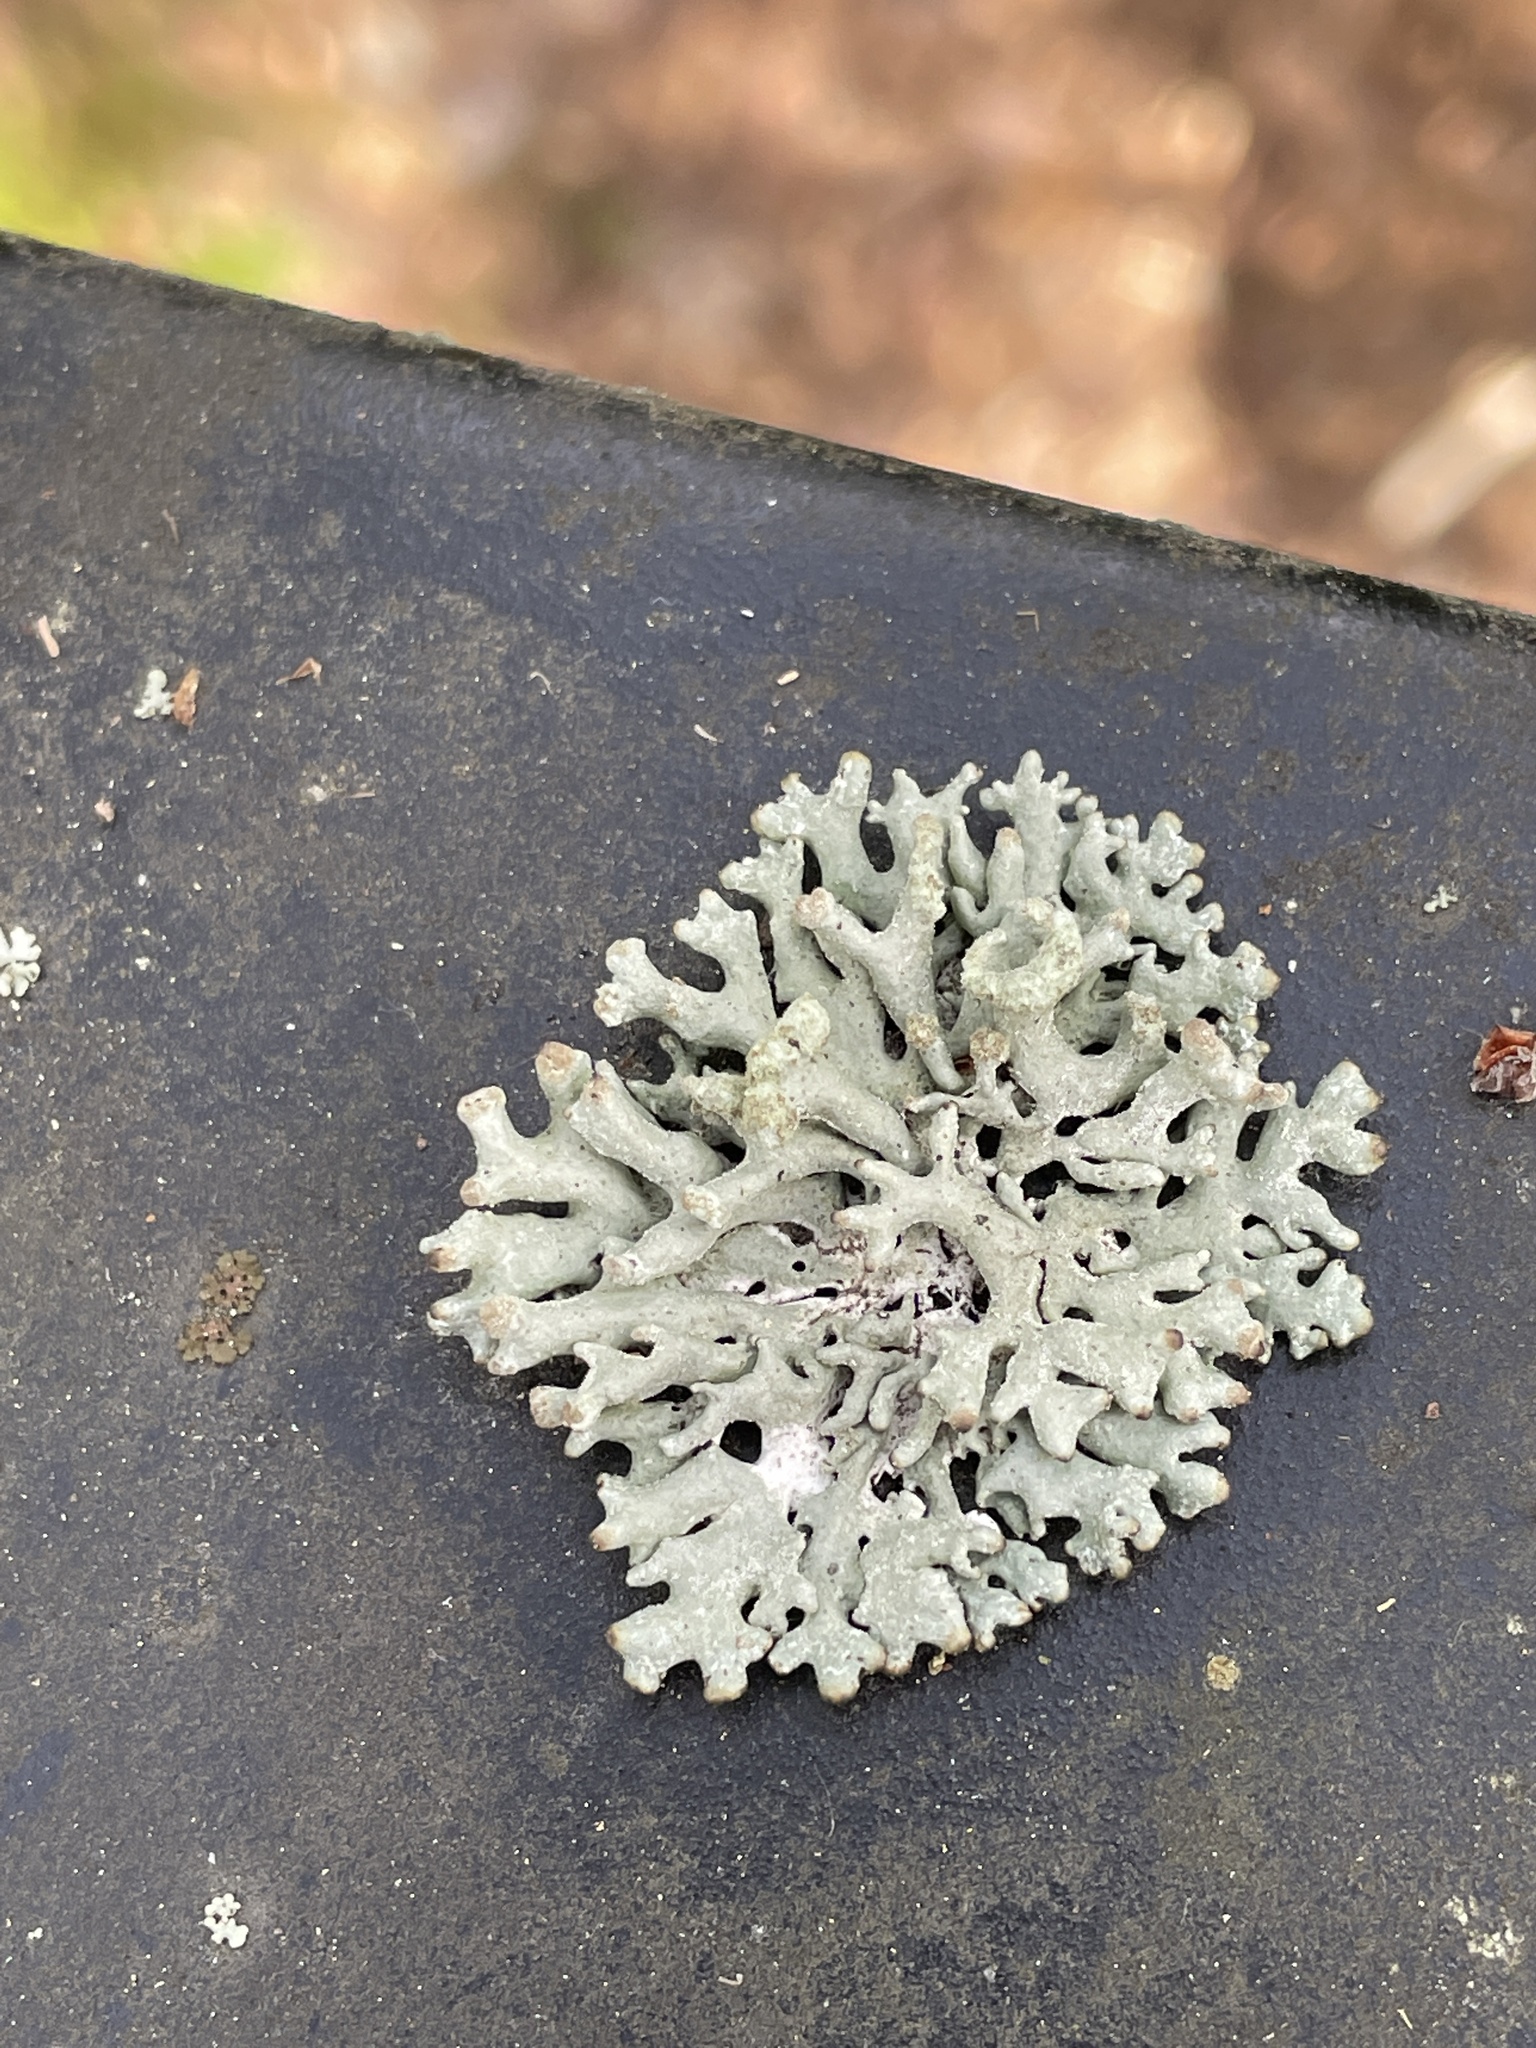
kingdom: Fungi
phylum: Ascomycota
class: Lecanoromycetes
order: Lecanorales
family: Parmeliaceae
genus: Hypogymnia
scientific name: Hypogymnia tubulosa
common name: Powder-headed tube lichen
